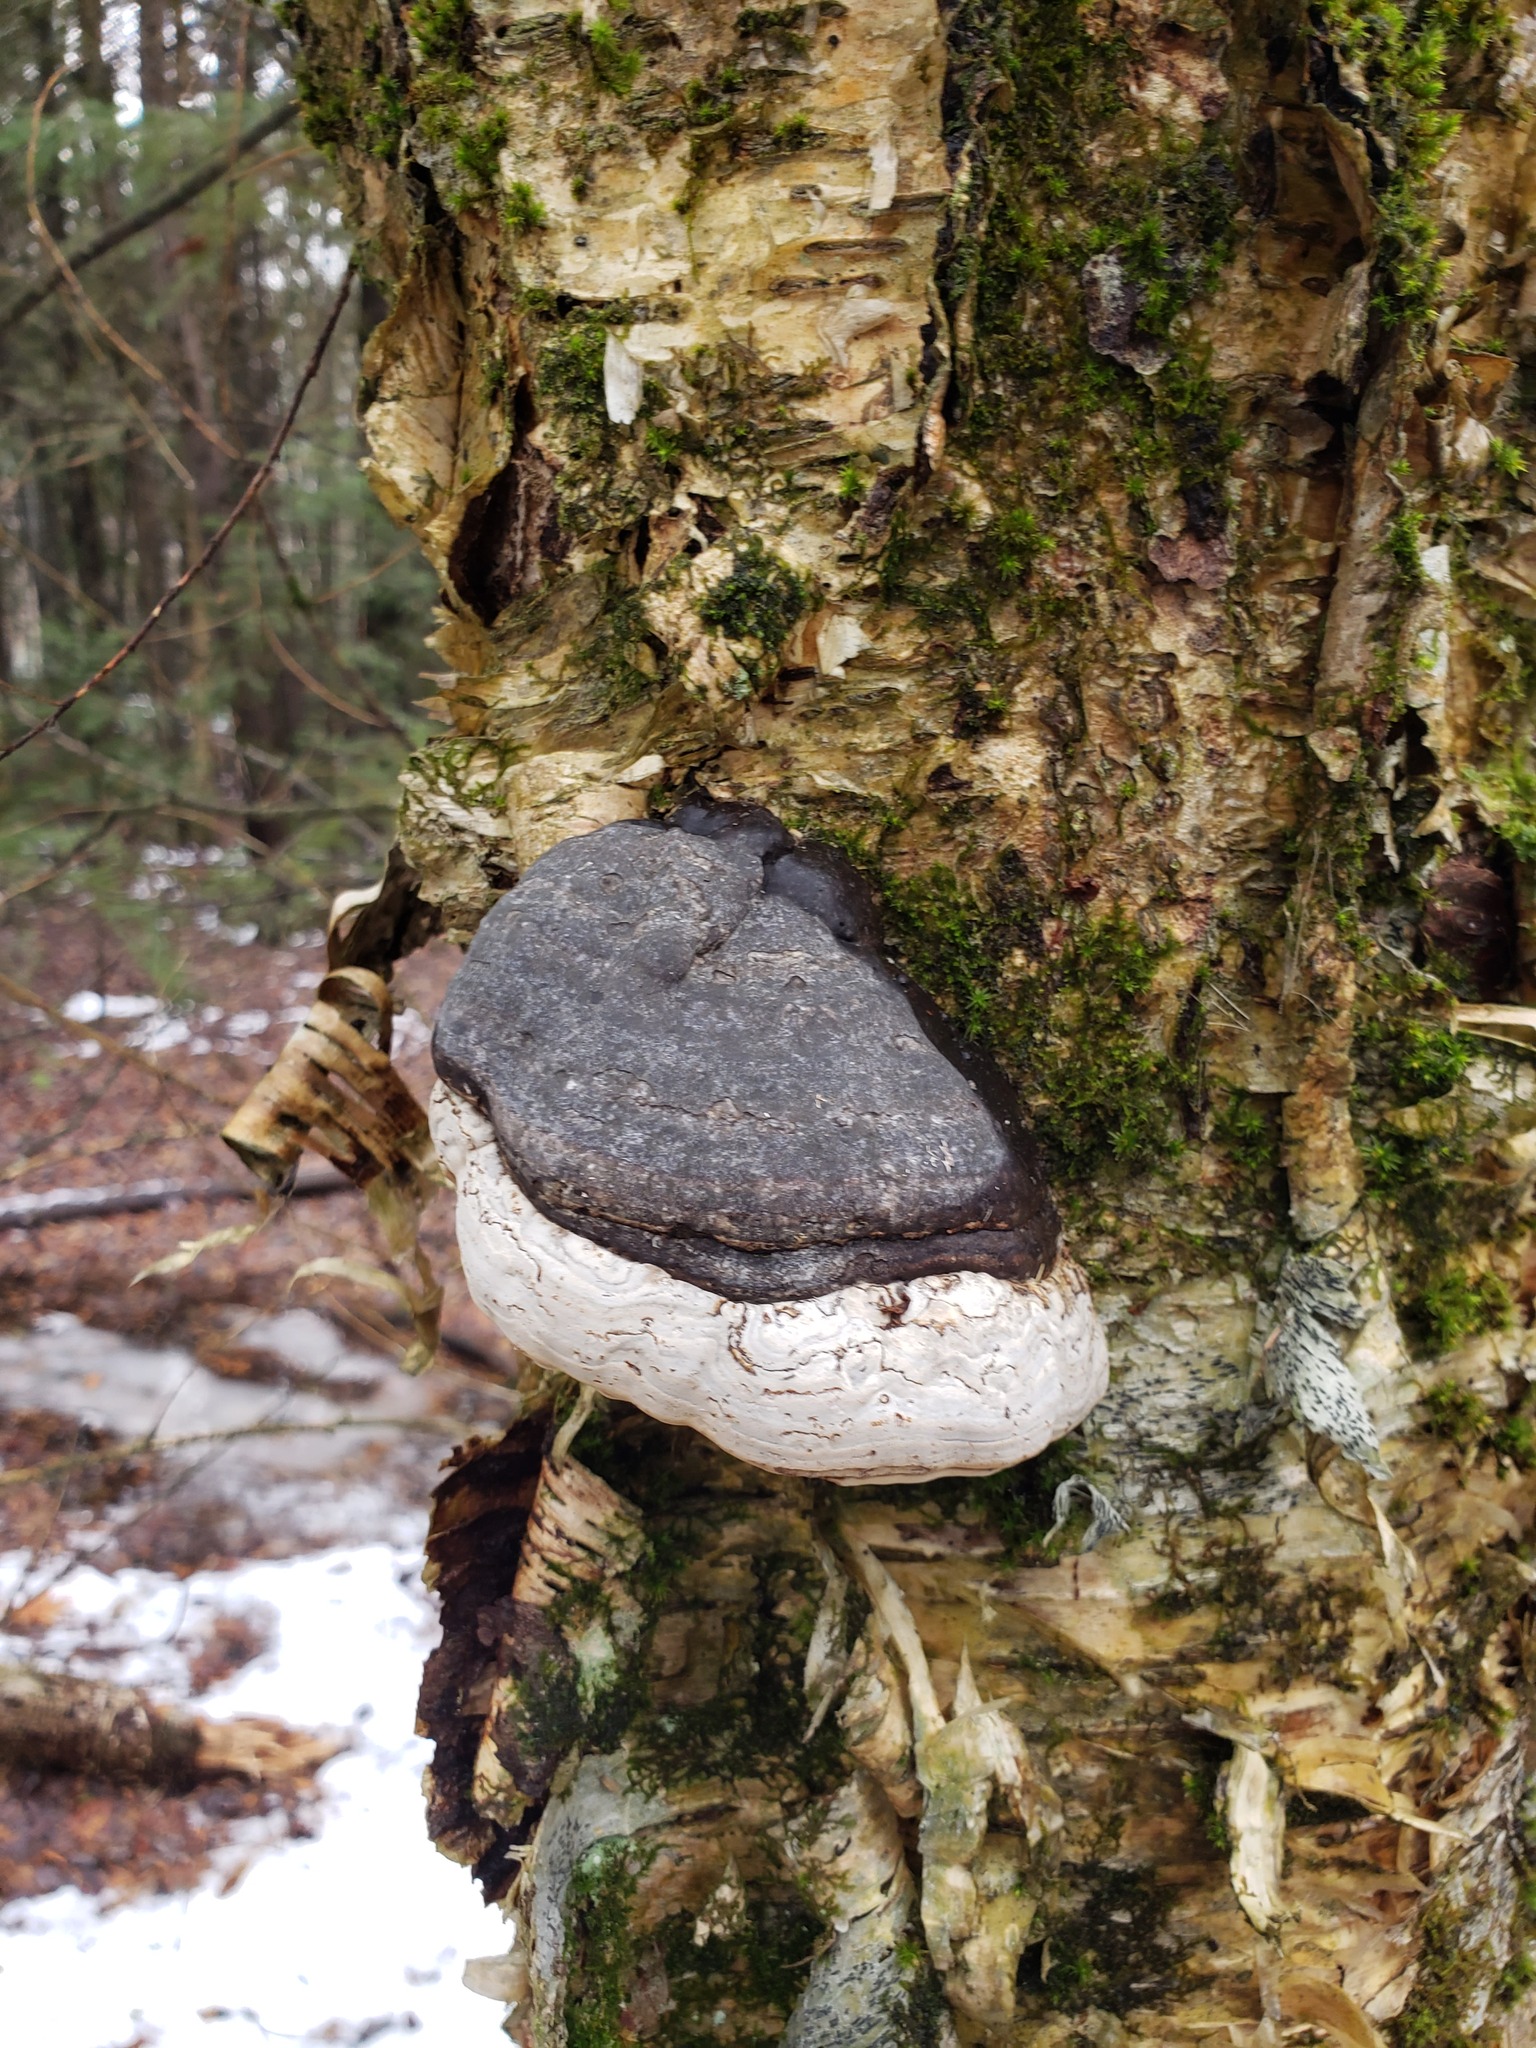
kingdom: Fungi
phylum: Basidiomycota
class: Agaricomycetes
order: Polyporales
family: Polyporaceae
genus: Fomes
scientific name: Fomes fomentarius
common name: Hoof fungus
